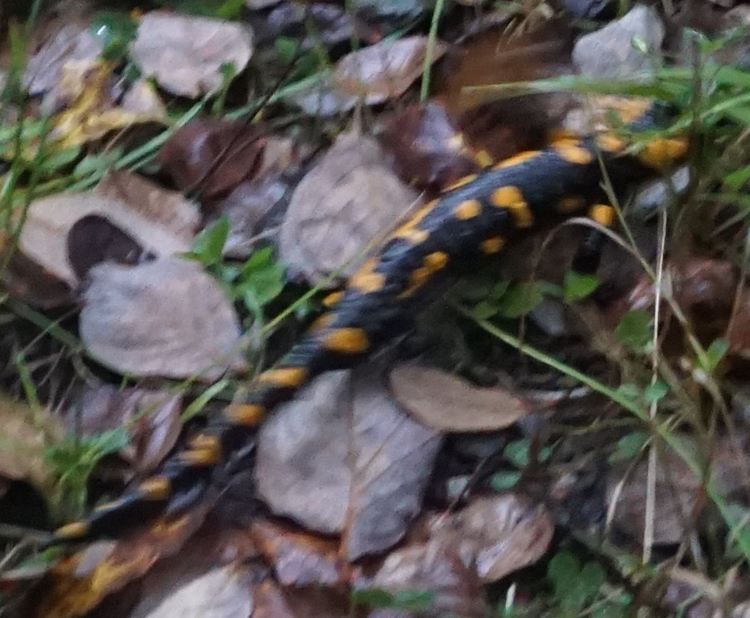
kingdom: Animalia
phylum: Chordata
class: Amphibia
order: Caudata
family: Salamandridae
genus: Salamandra
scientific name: Salamandra salamandra
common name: Fire salamander
